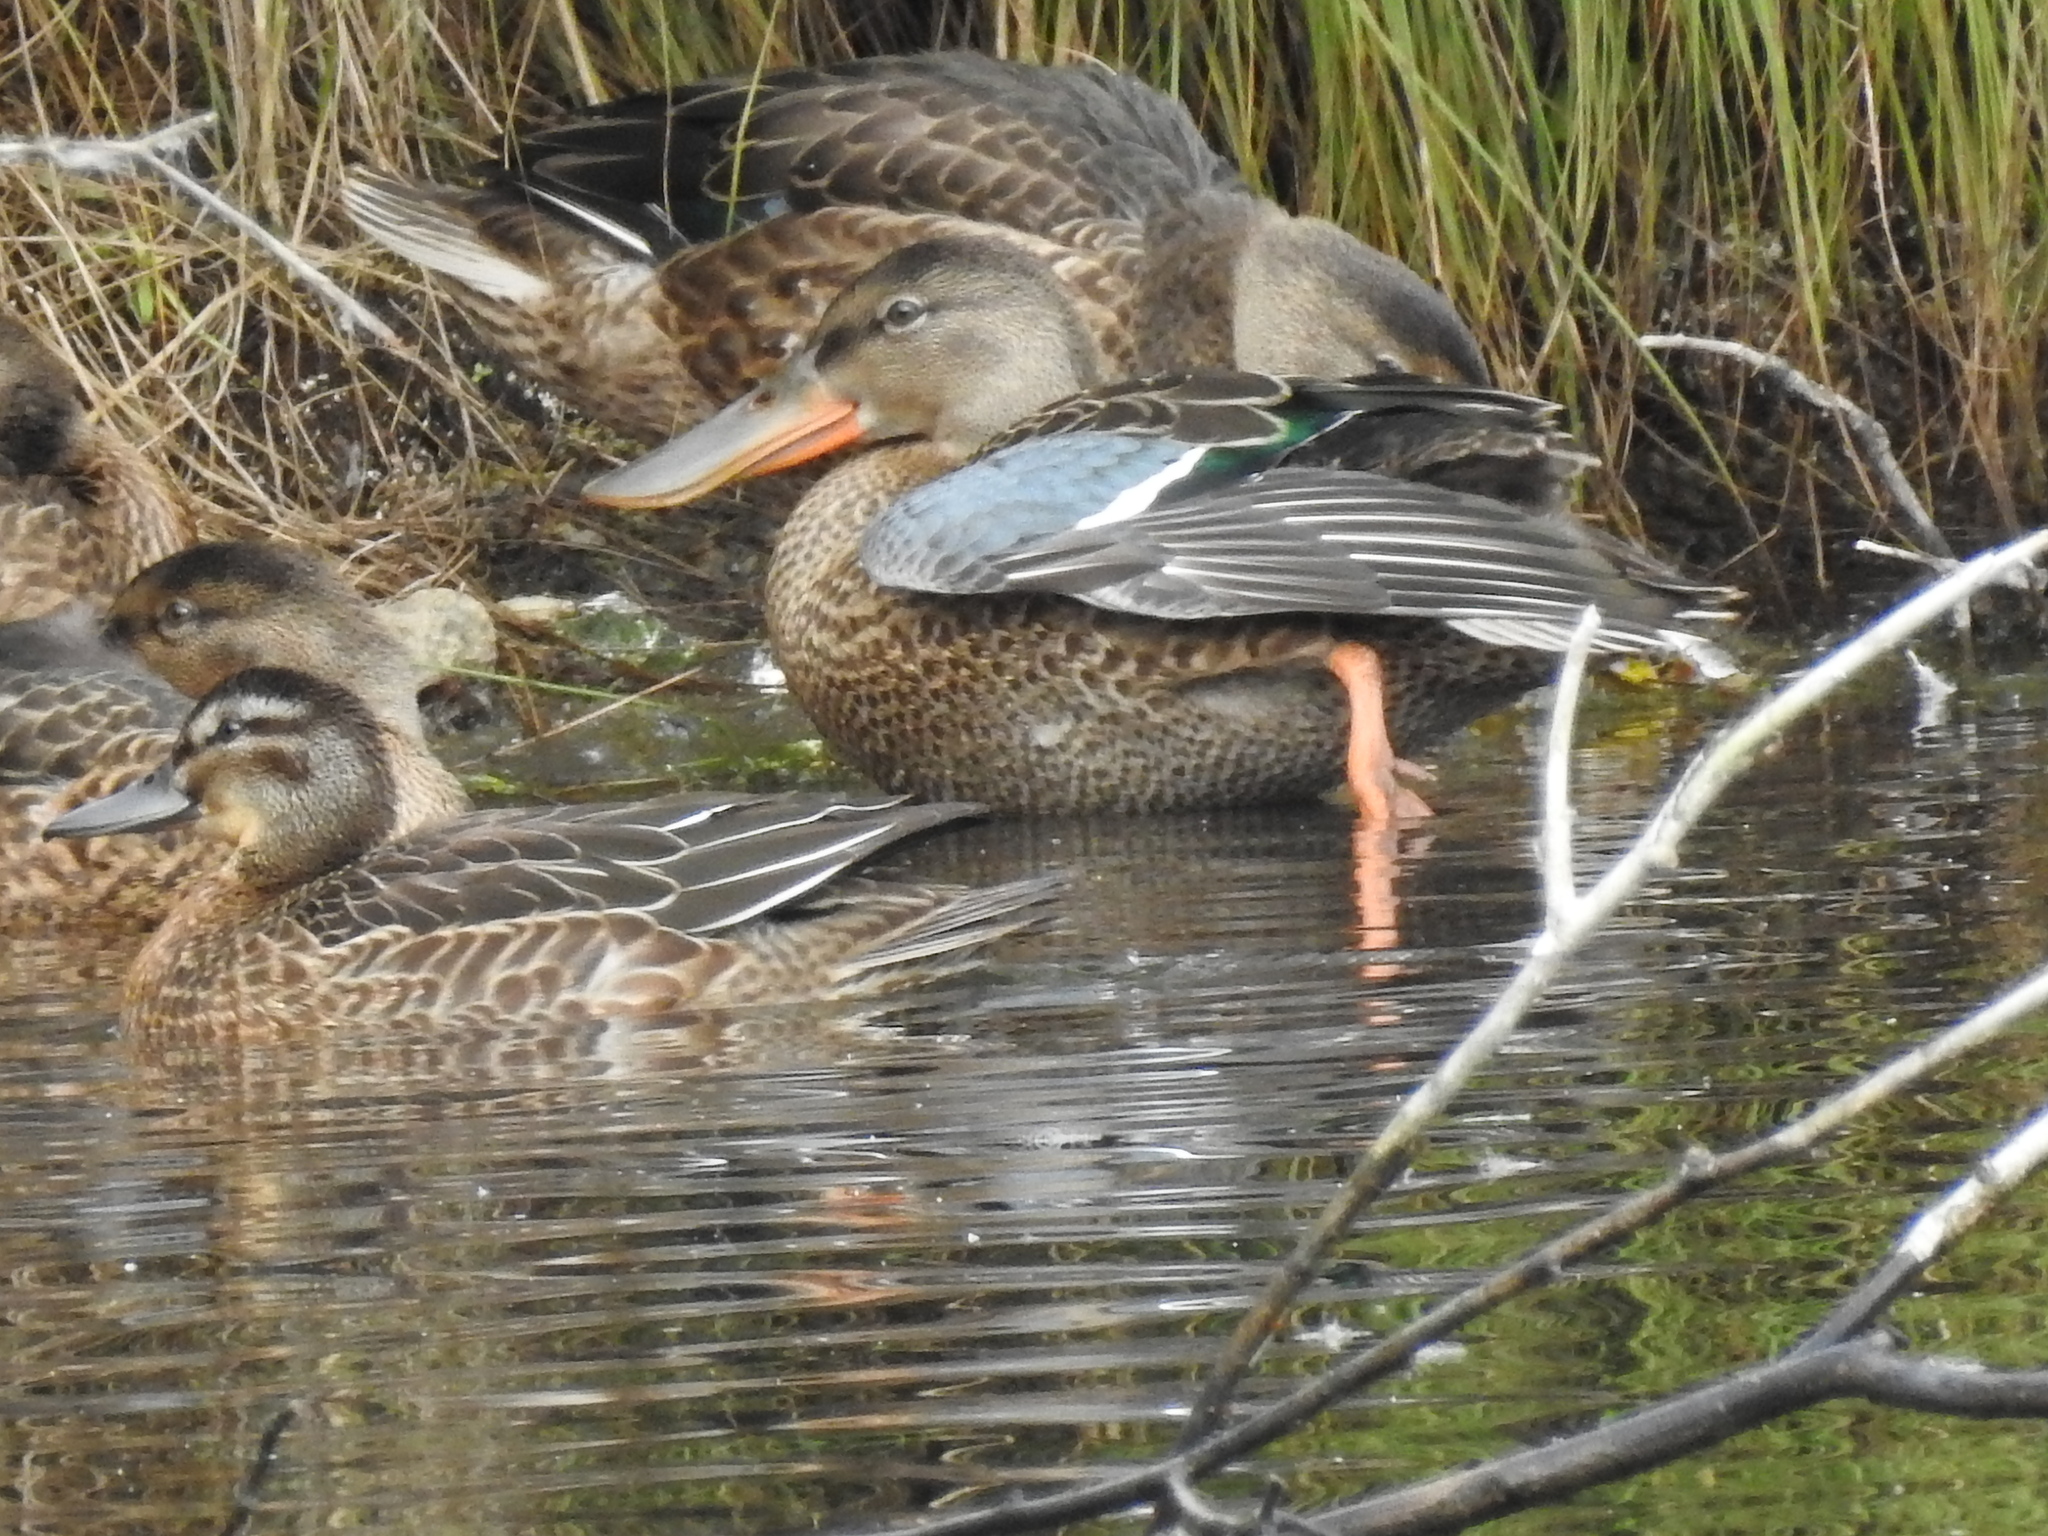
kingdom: Animalia
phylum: Chordata
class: Aves
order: Anseriformes
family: Anatidae
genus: Spatula
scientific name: Spatula clypeata
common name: Northern shoveler
